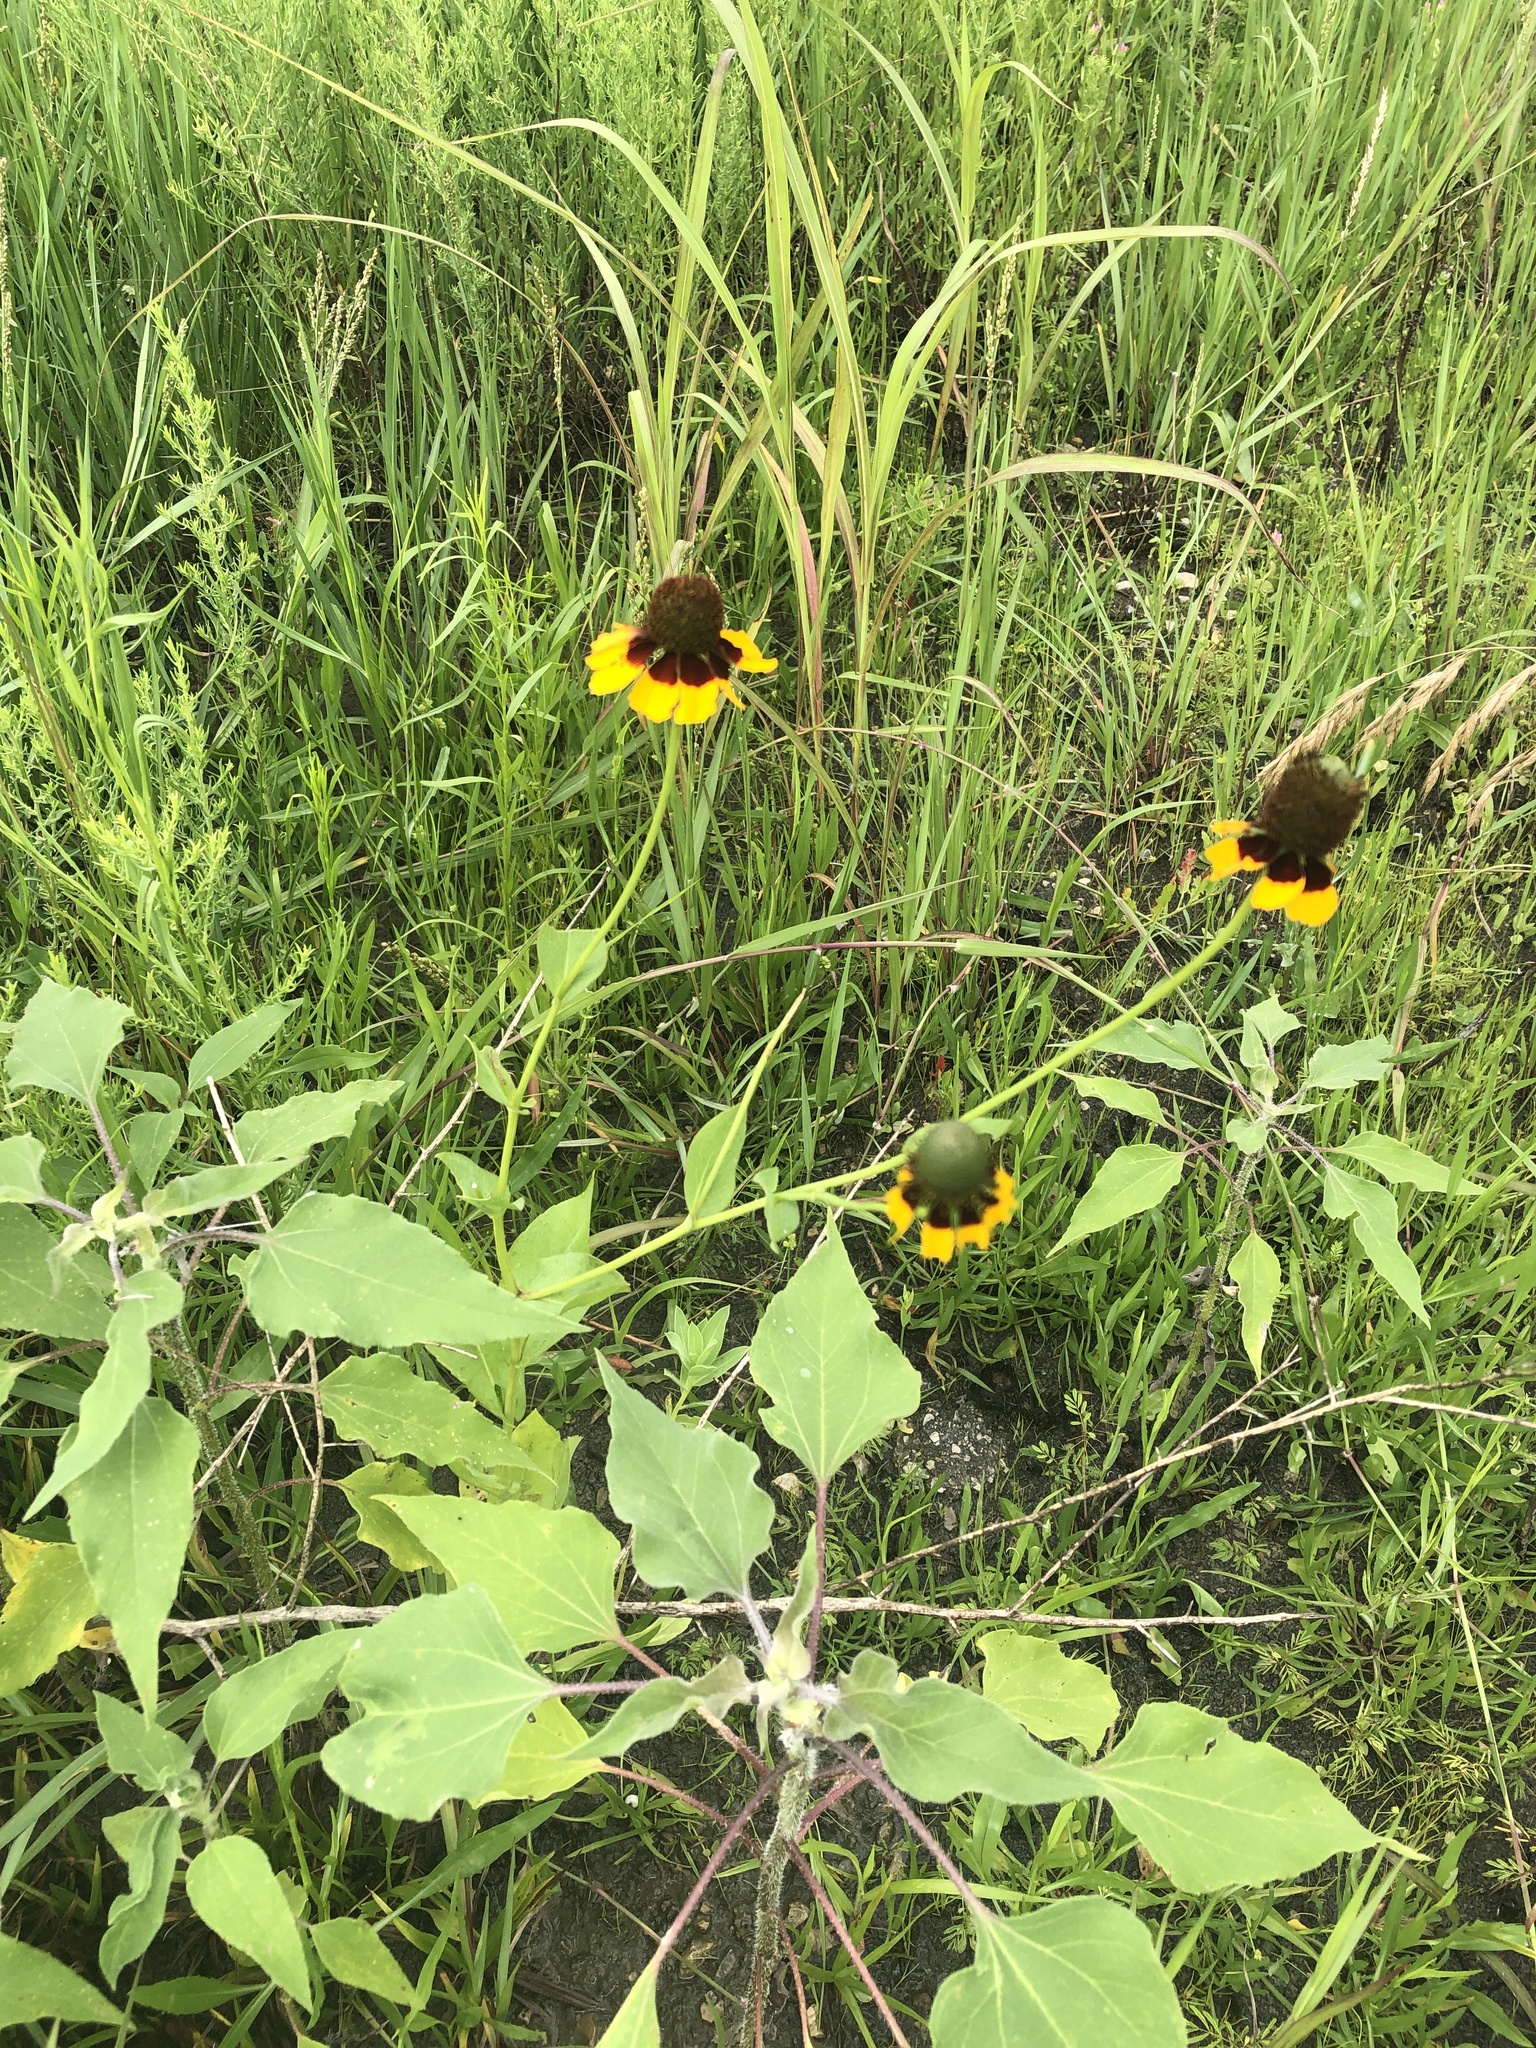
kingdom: Plantae
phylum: Tracheophyta
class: Magnoliopsida
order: Asterales
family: Asteraceae
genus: Rudbeckia
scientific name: Rudbeckia amplexicaulis
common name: Clasping-leaf coneflower
